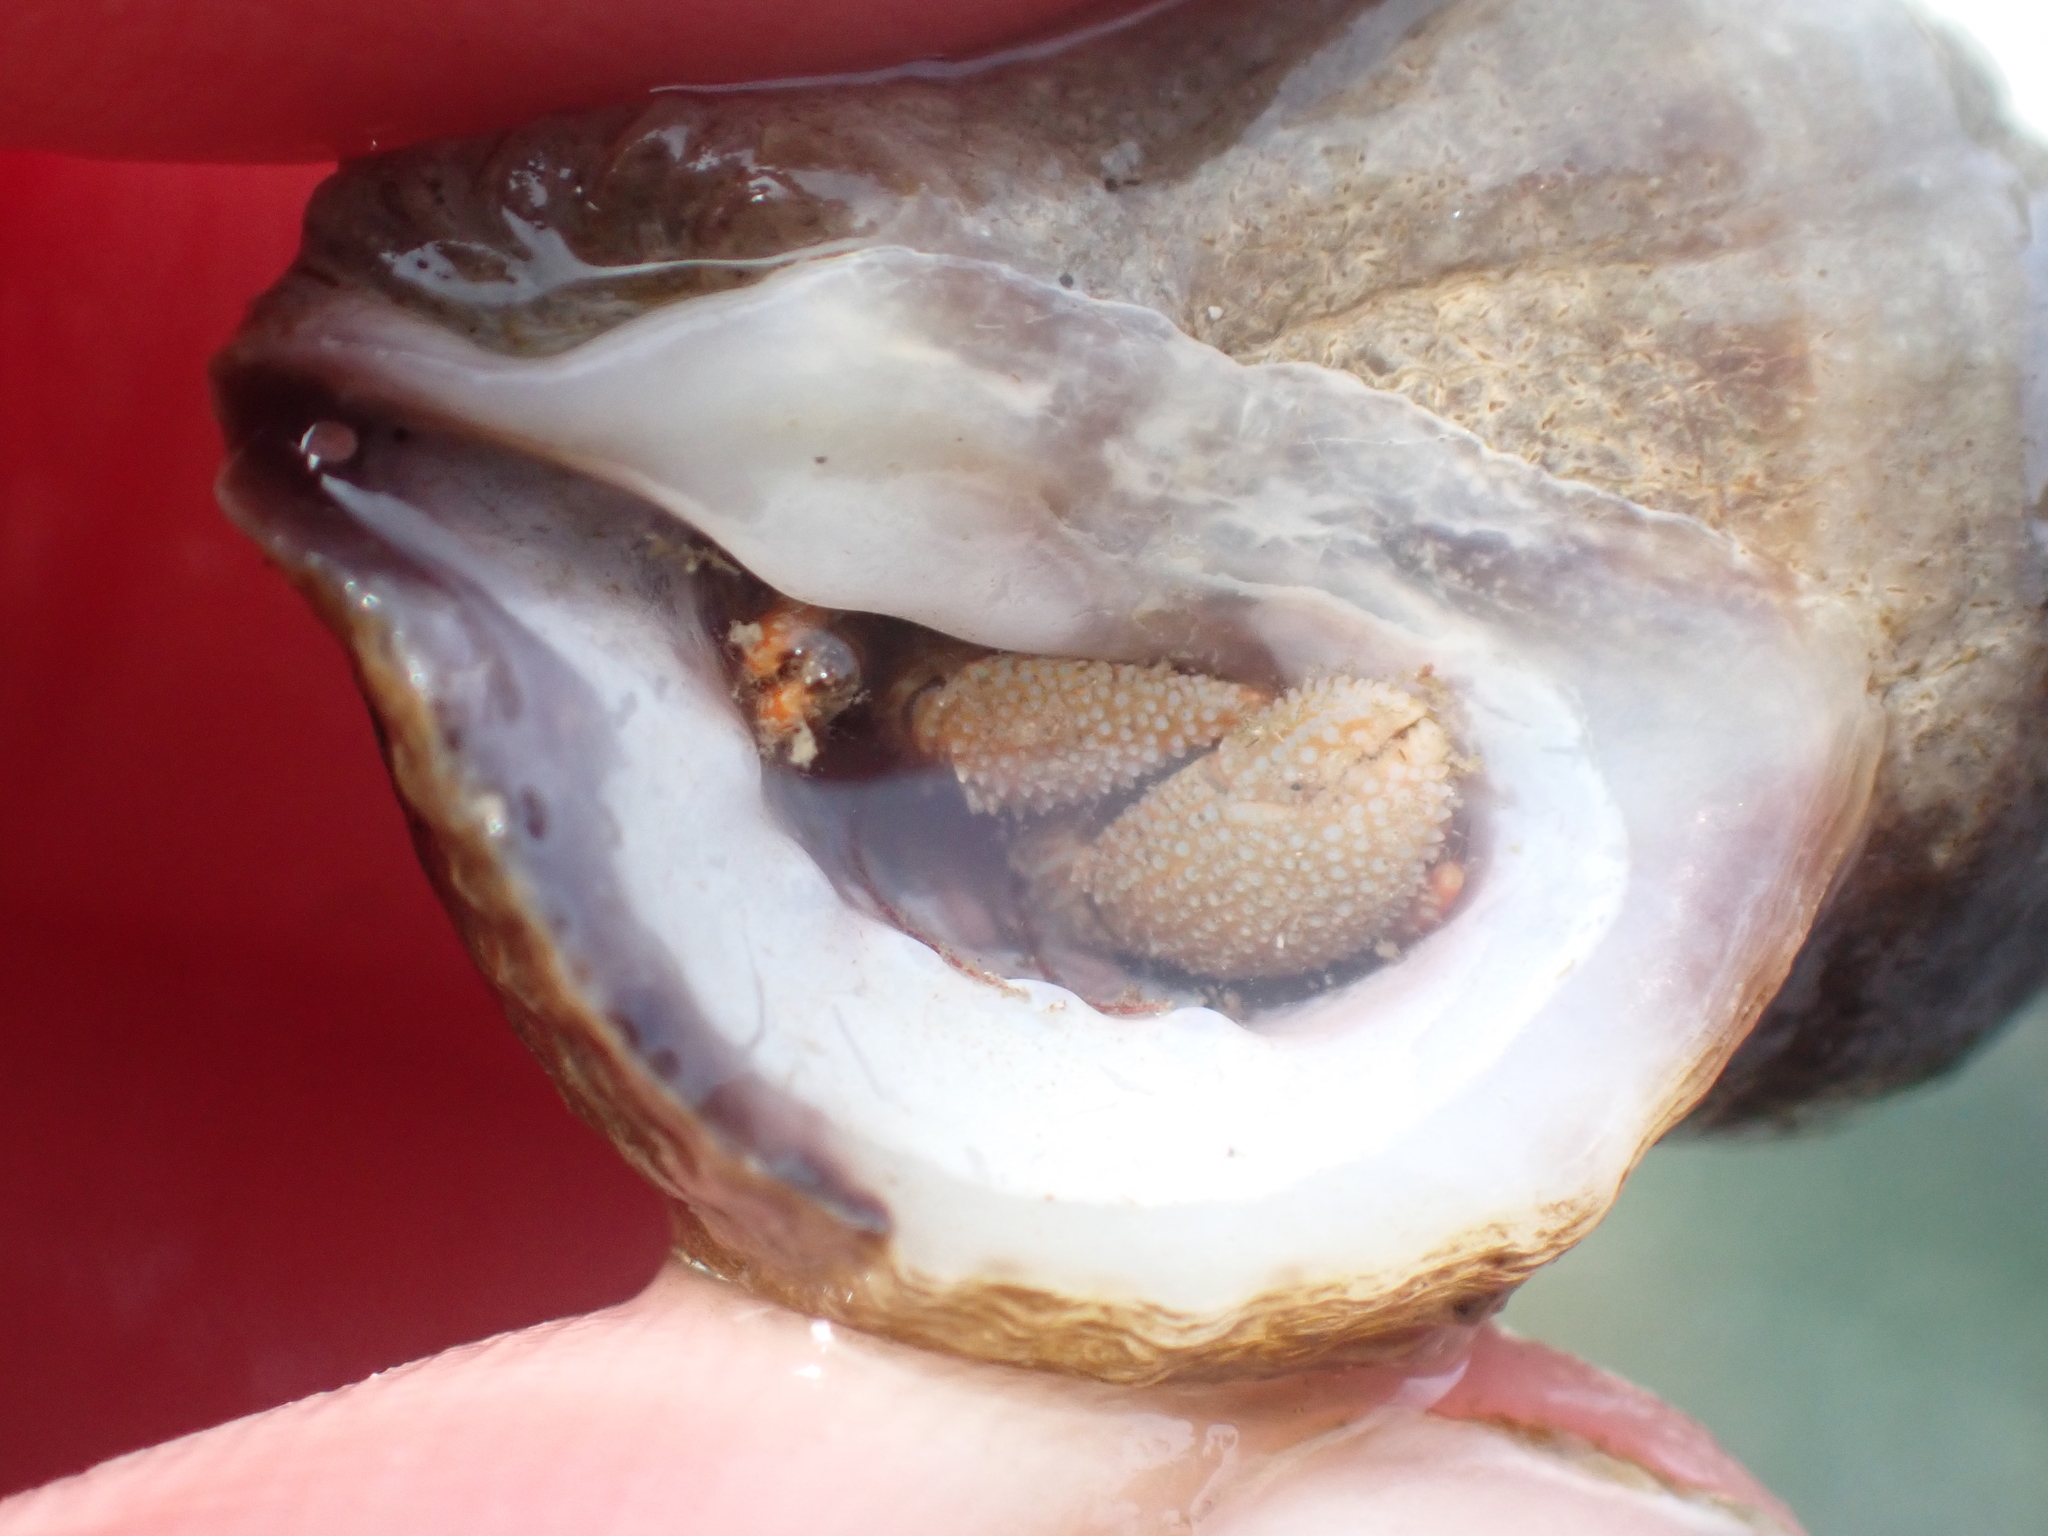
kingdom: Animalia
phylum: Arthropoda
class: Malacostraca
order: Decapoda
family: Paguridae
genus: Pagurus
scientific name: Pagurus granosimanus
